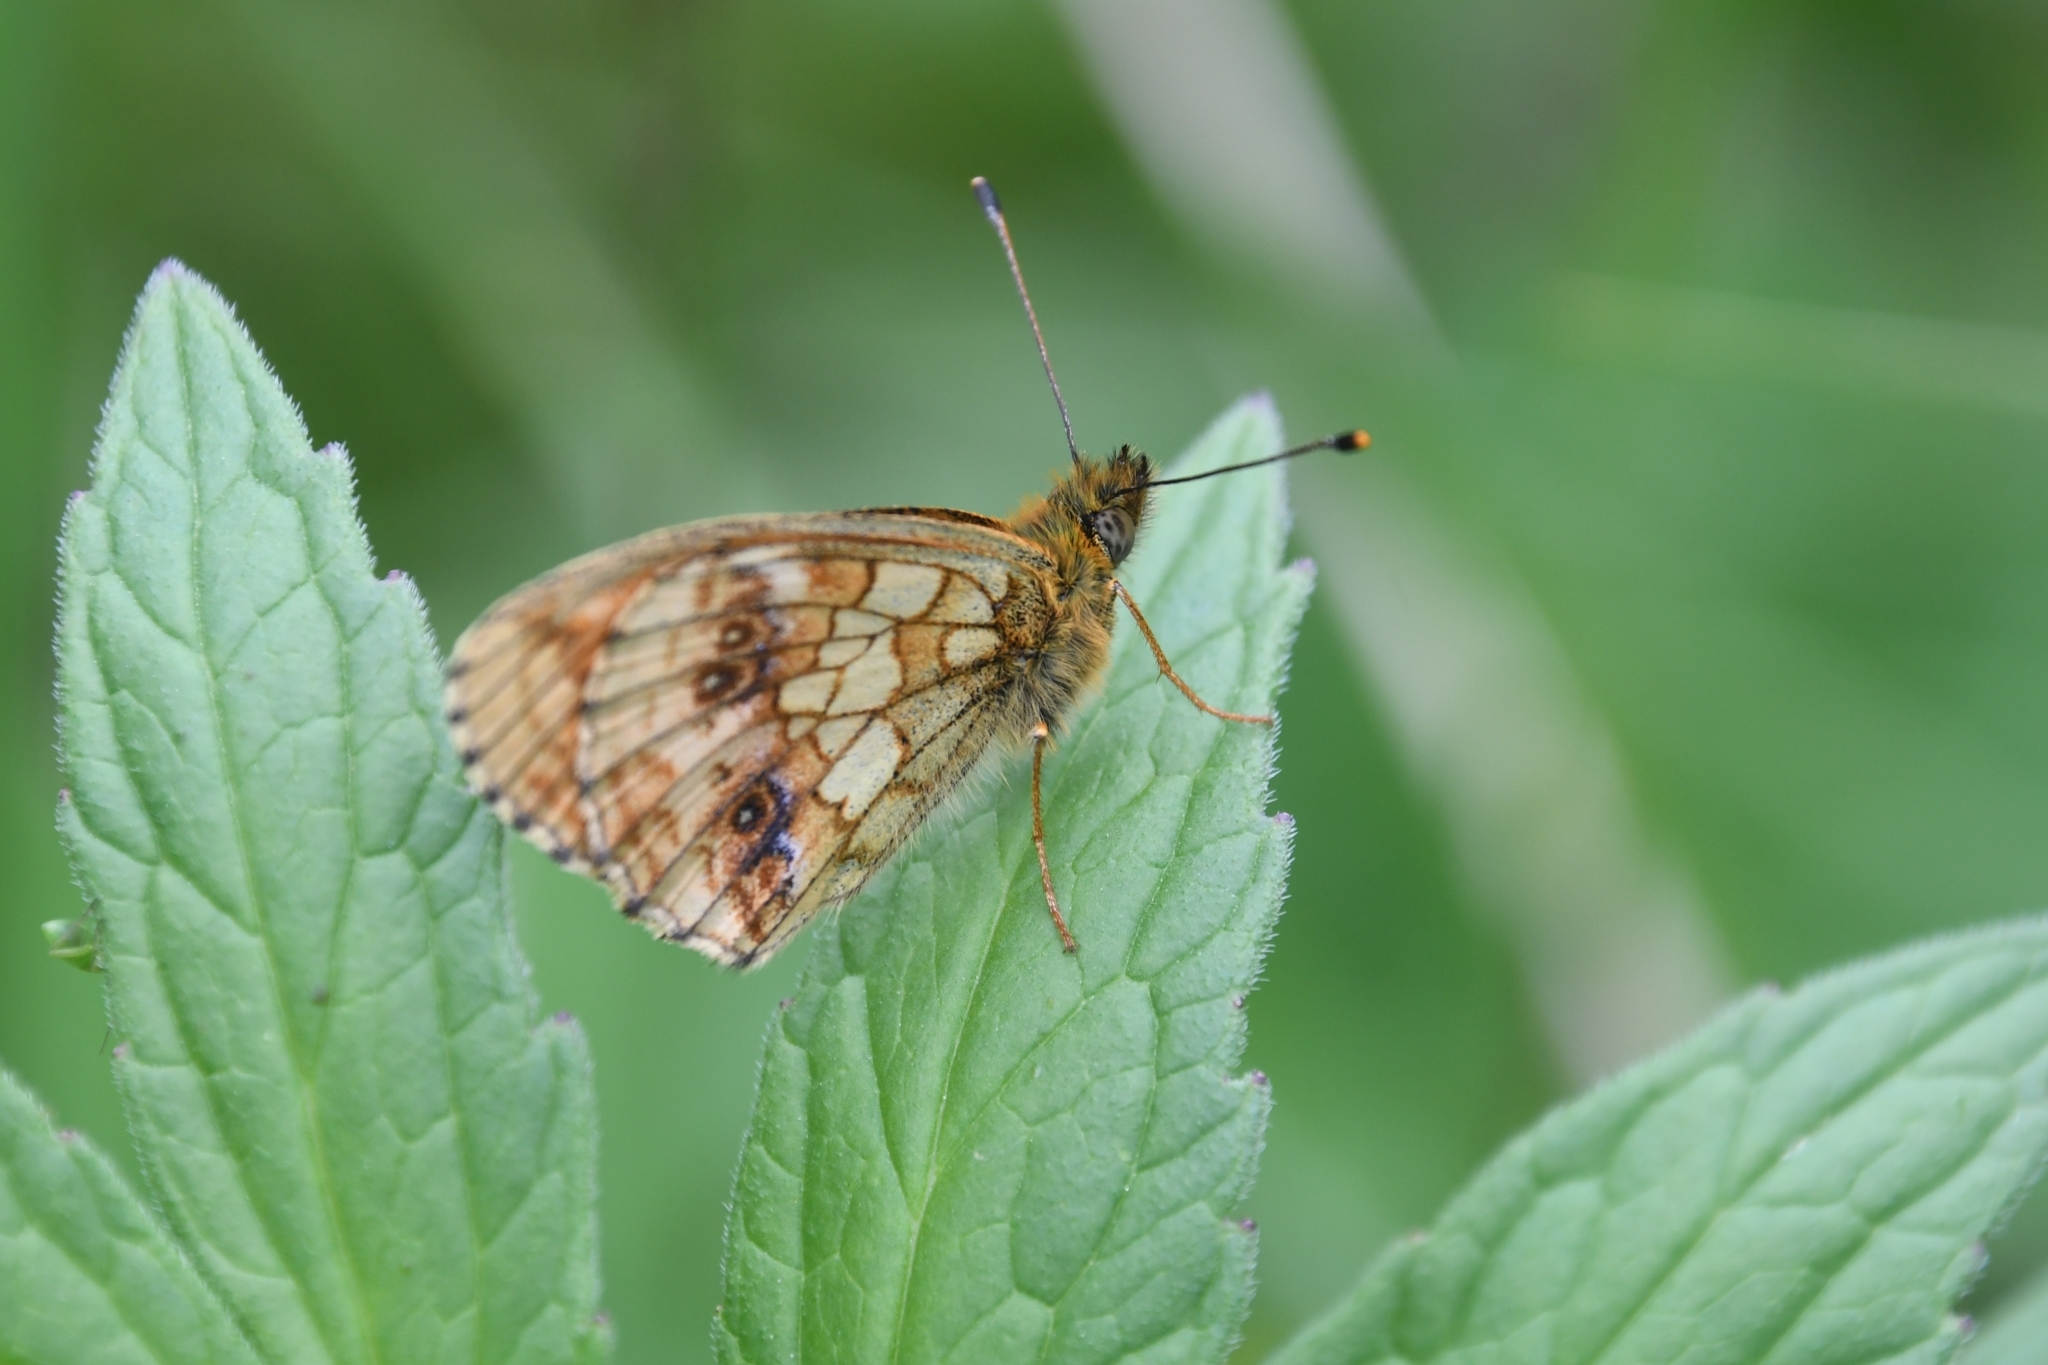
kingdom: Animalia
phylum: Arthropoda
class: Insecta
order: Lepidoptera
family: Nymphalidae
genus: Brenthis
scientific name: Brenthis ino
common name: Lesser marbled fritillary
